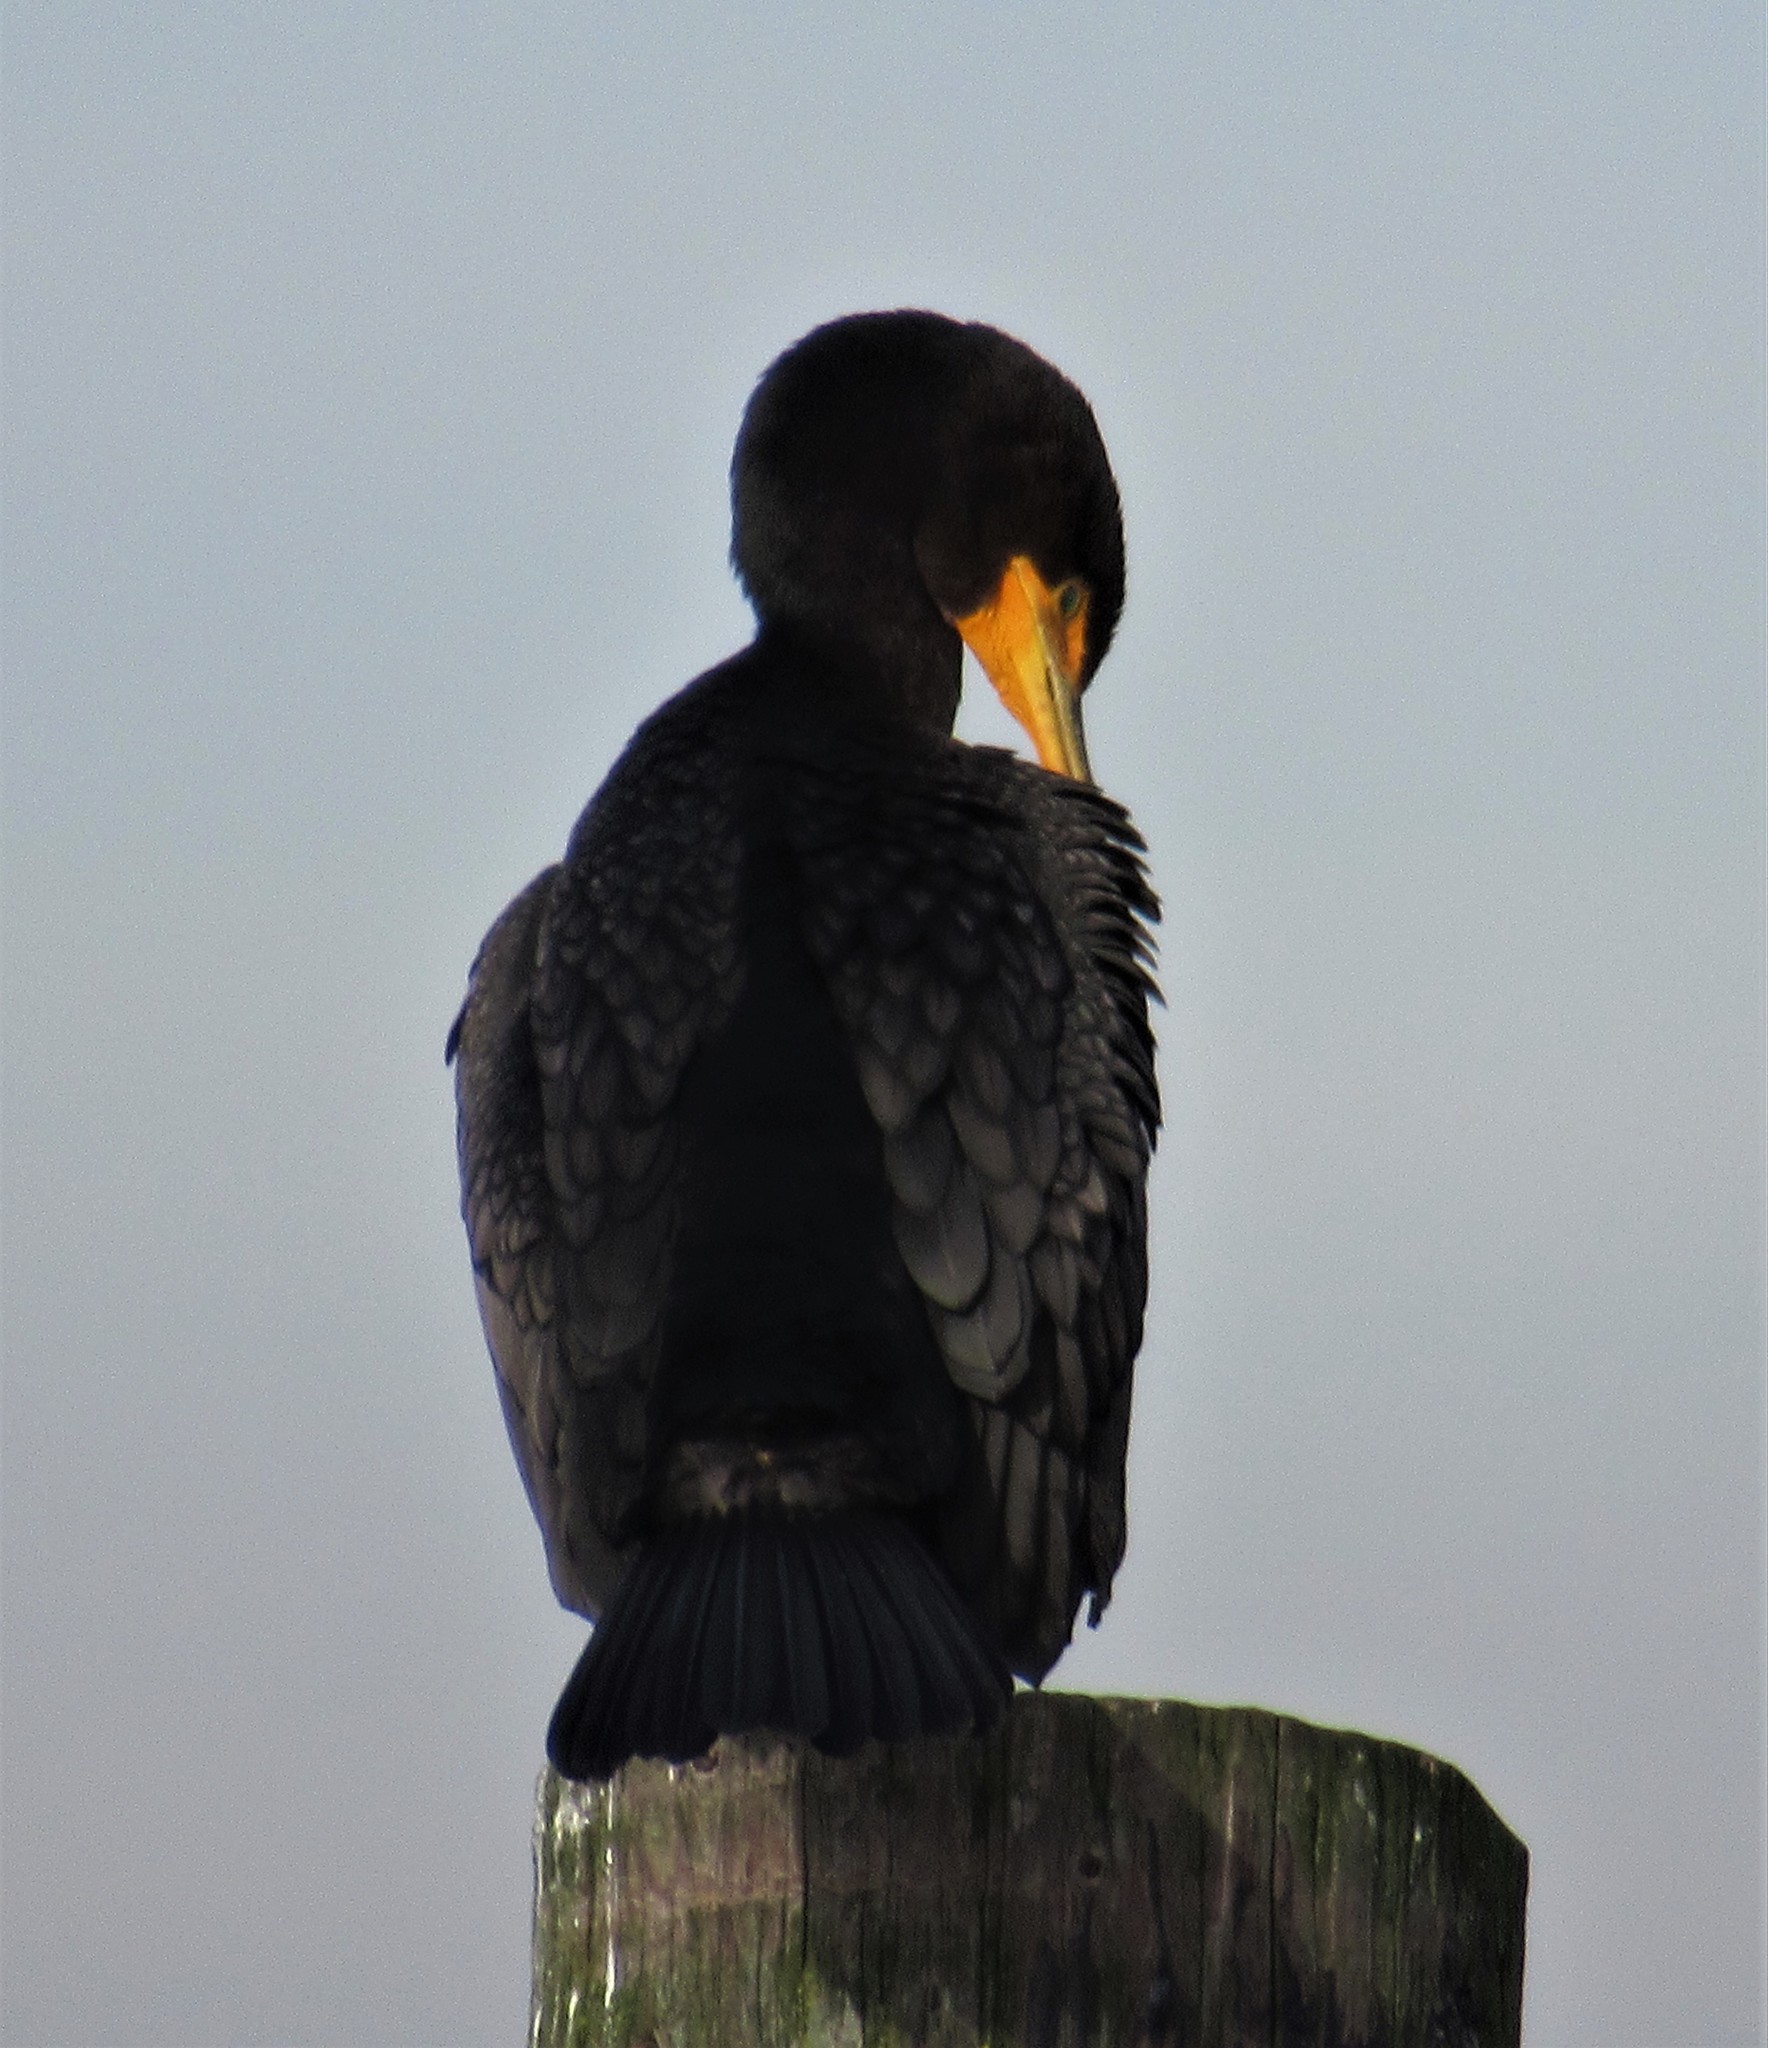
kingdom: Animalia
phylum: Chordata
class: Aves
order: Suliformes
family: Phalacrocoracidae
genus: Phalacrocorax
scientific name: Phalacrocorax auritus
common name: Double-crested cormorant
